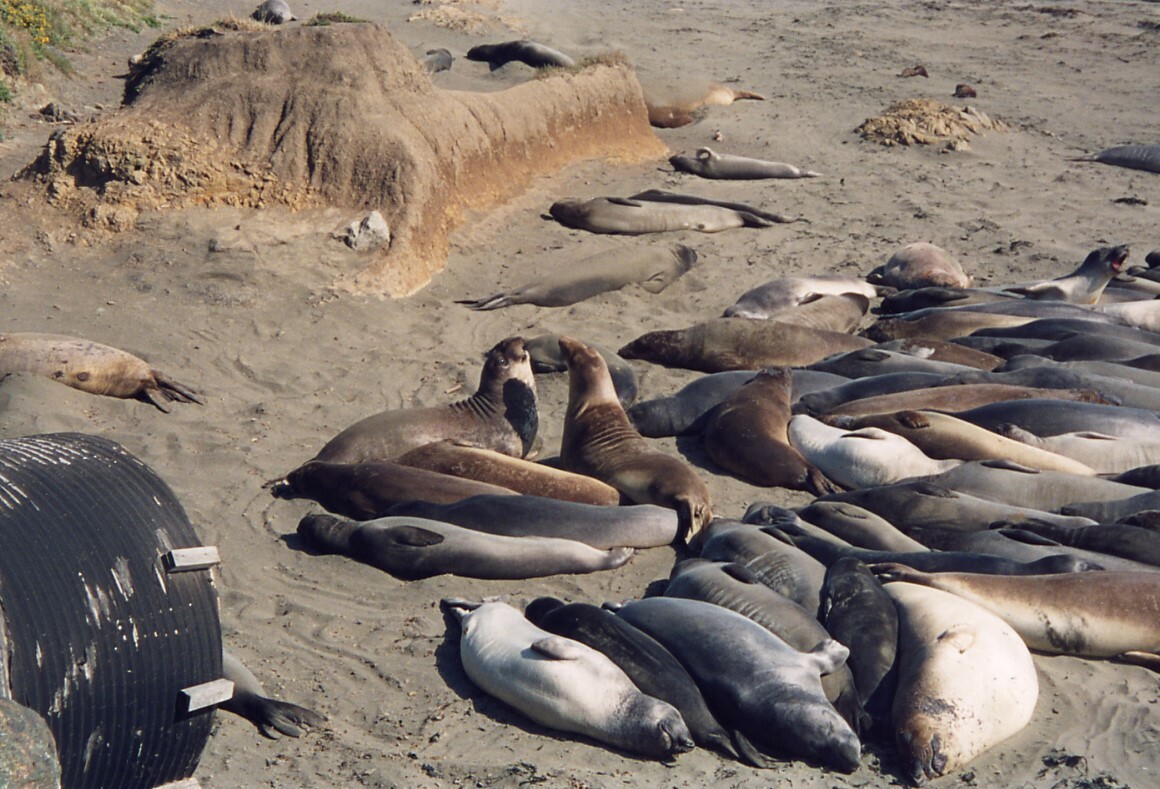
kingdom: Animalia
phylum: Chordata
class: Mammalia
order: Carnivora
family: Phocidae
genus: Mirounga
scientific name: Mirounga angustirostris
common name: Northern elephant seal
